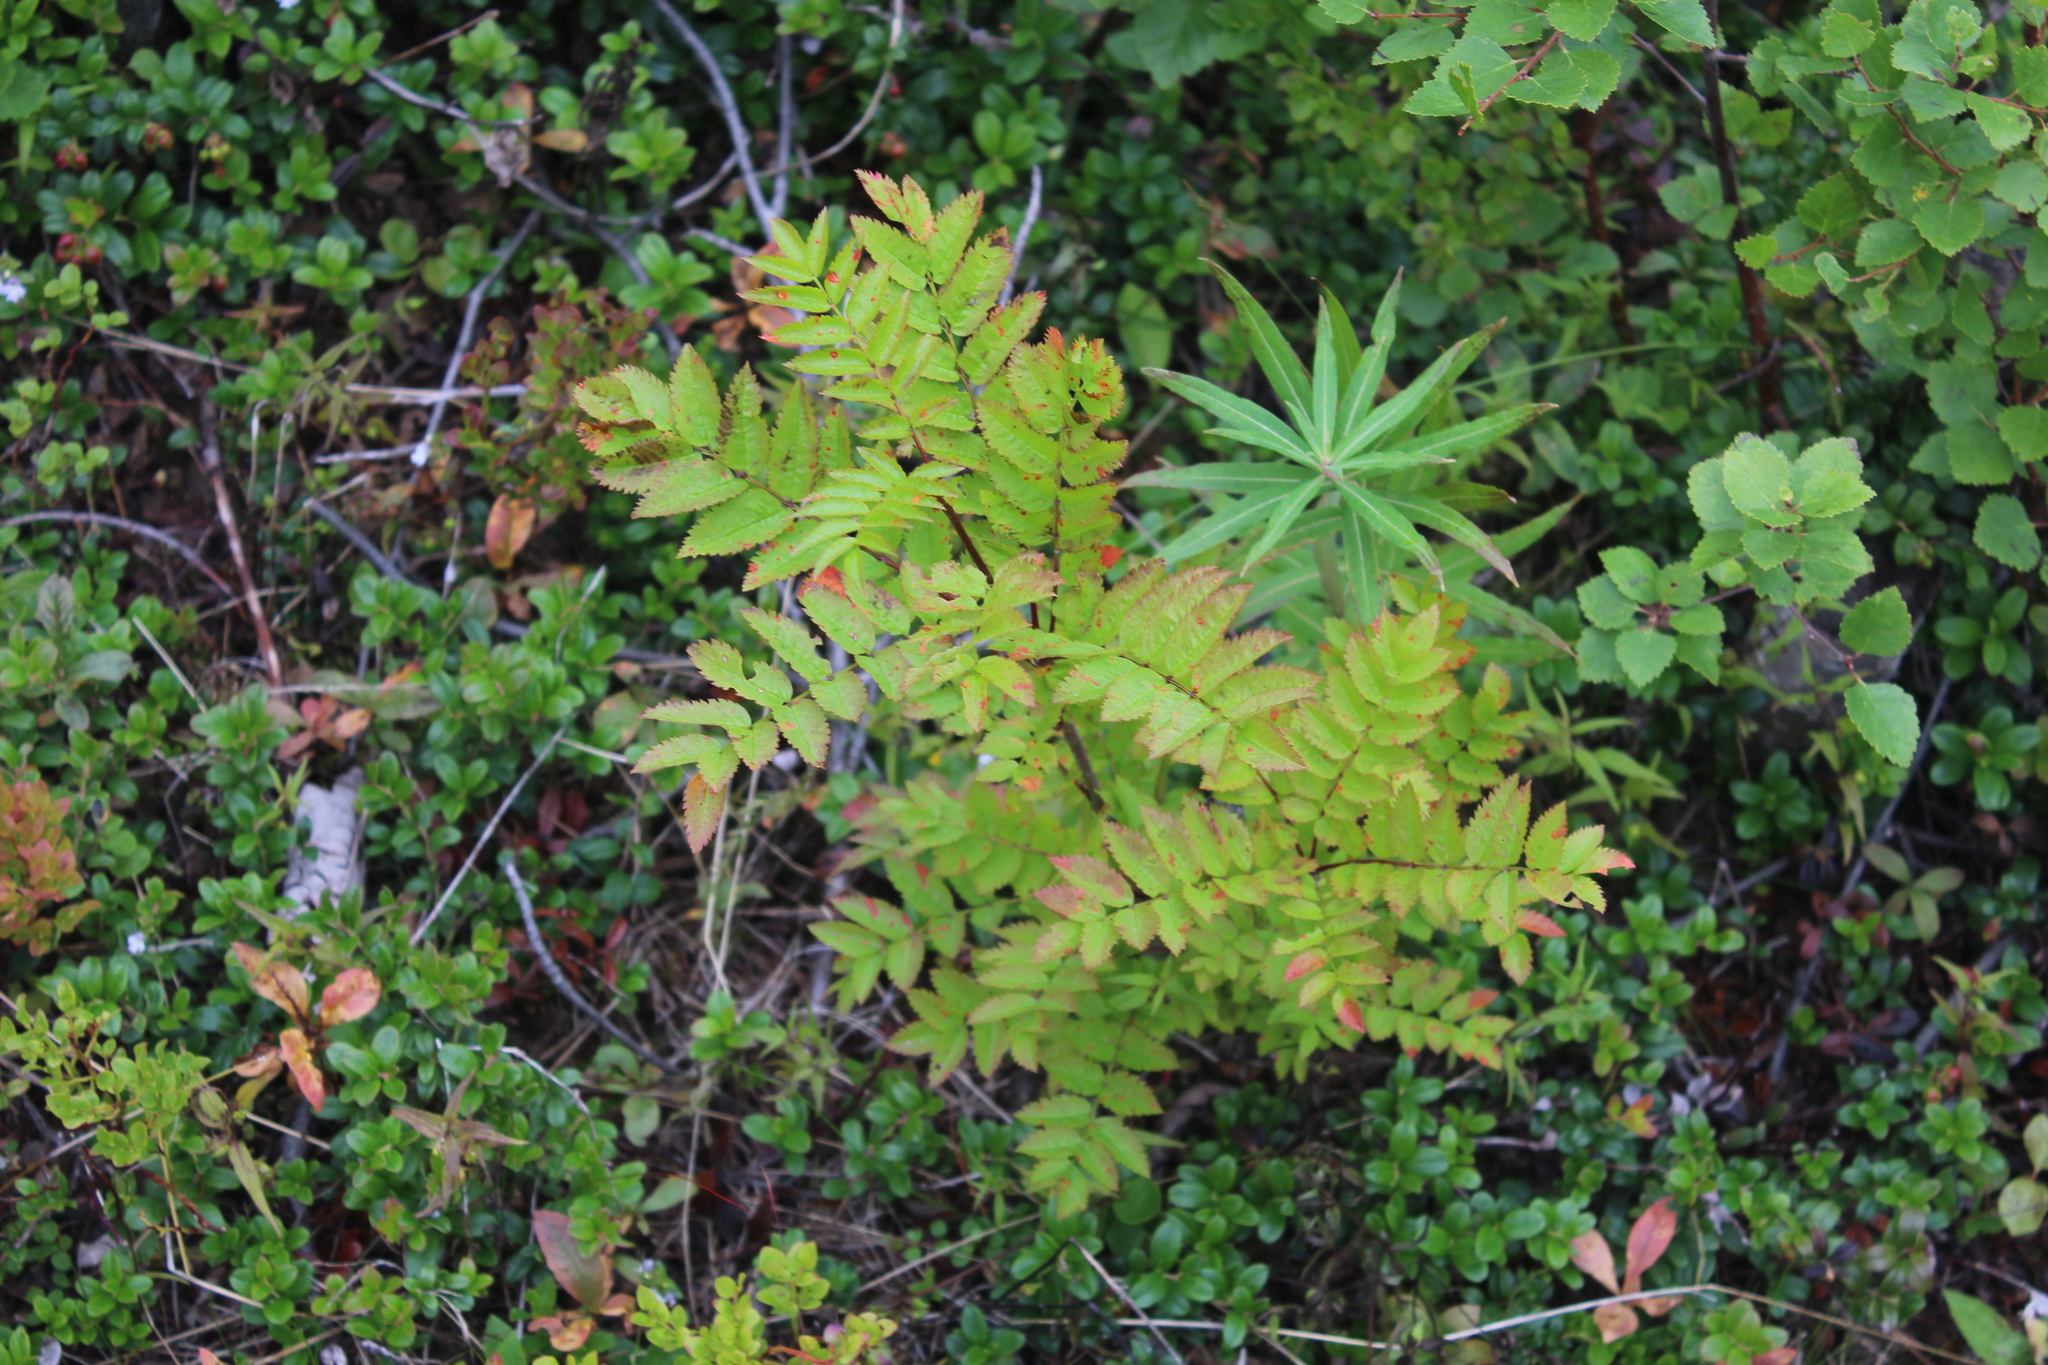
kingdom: Plantae
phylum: Tracheophyta
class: Magnoliopsida
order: Rosales
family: Rosaceae
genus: Sorbus
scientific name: Sorbus aucuparia
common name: Rowan
